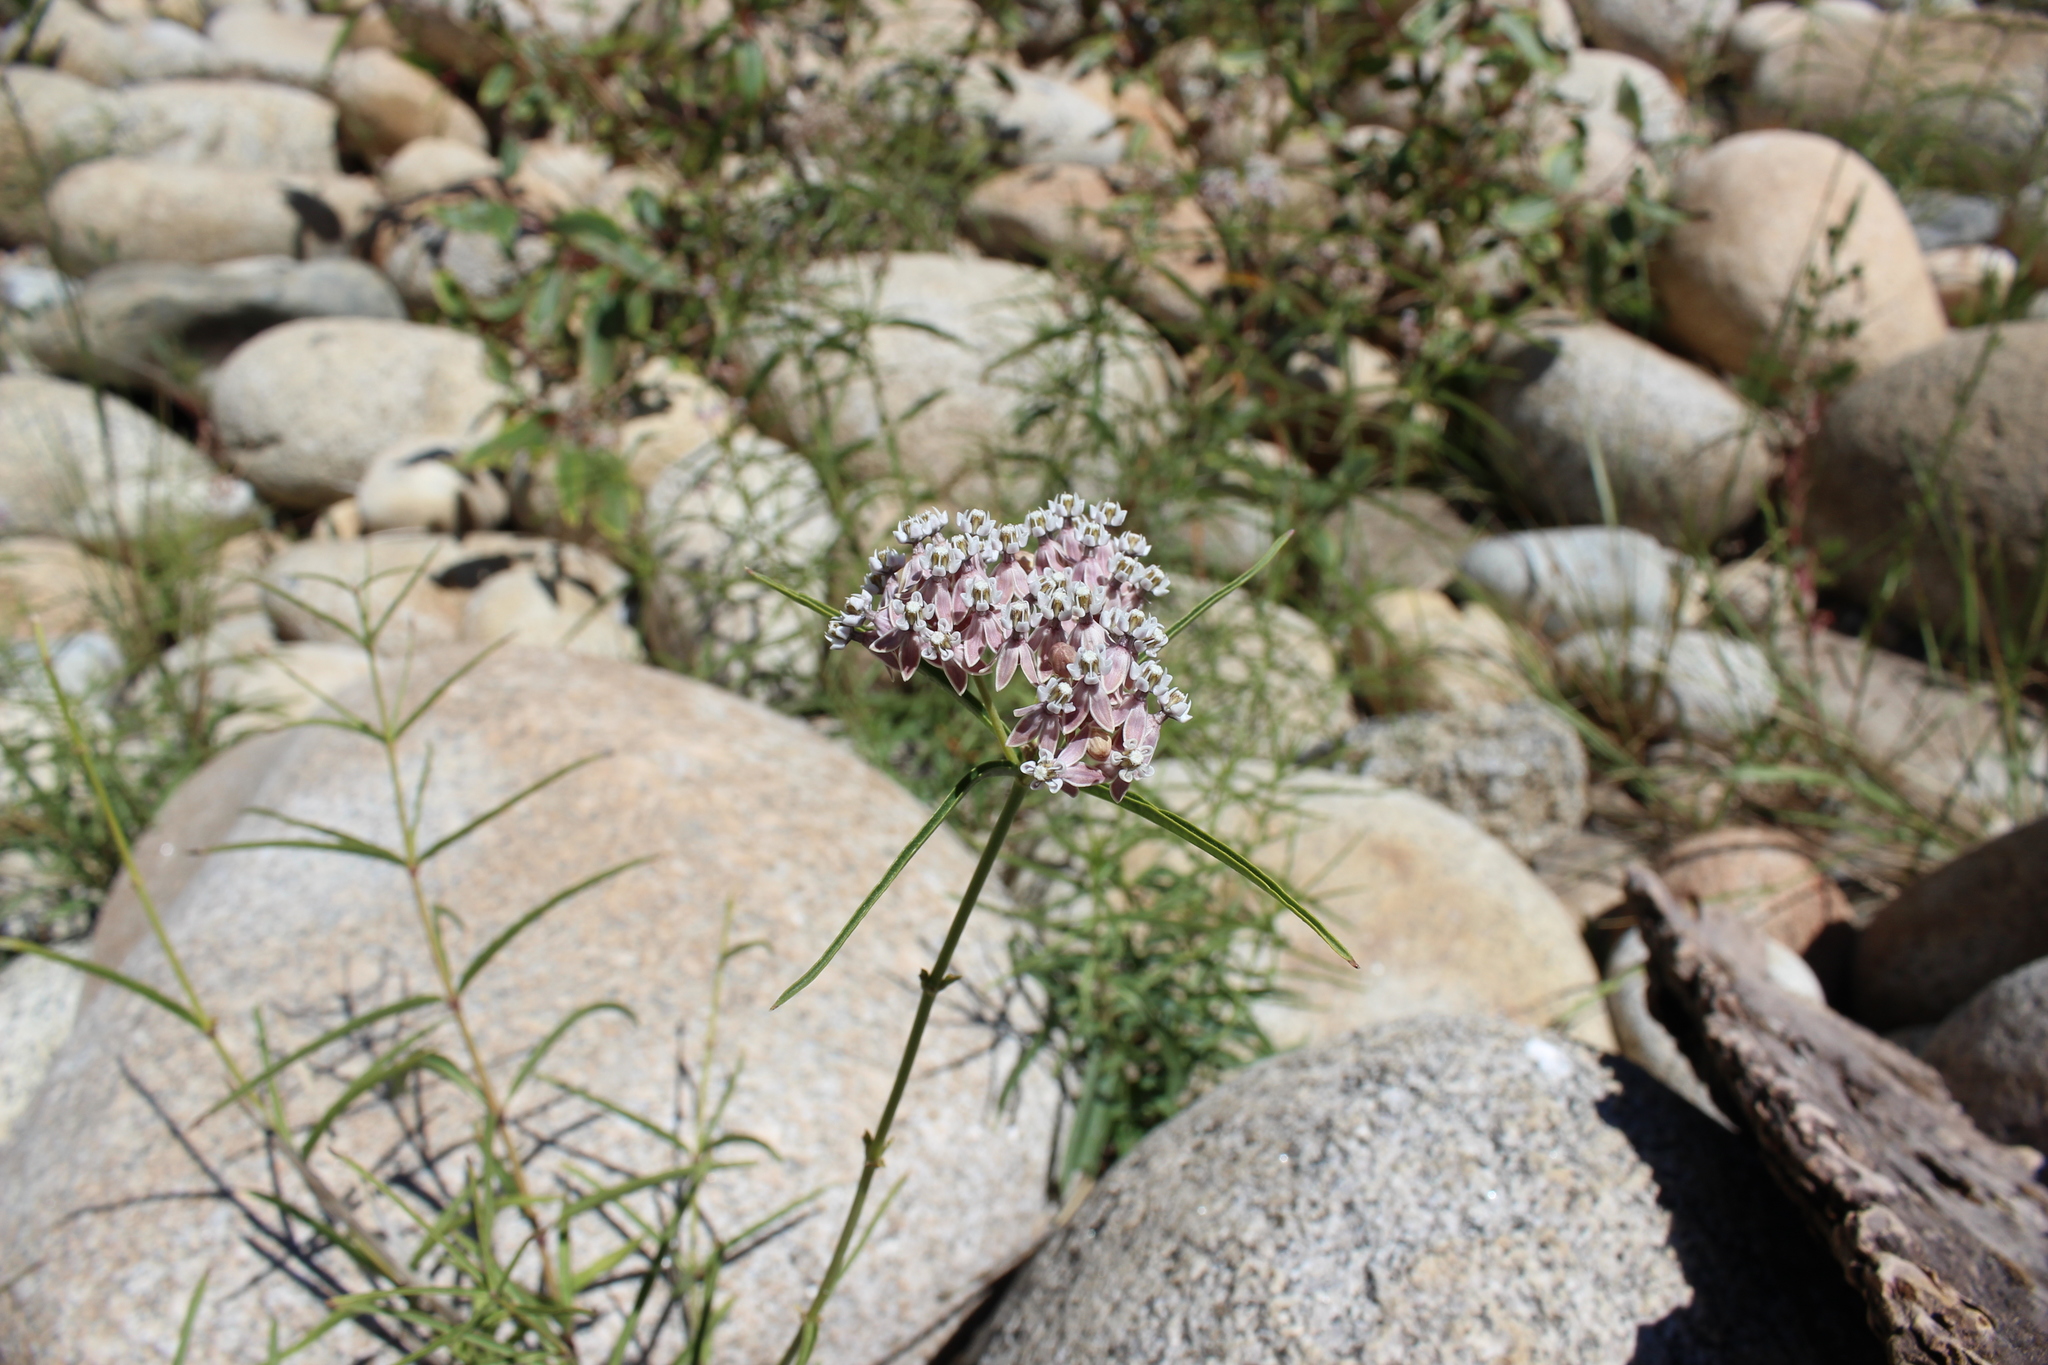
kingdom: Plantae
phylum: Tracheophyta
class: Magnoliopsida
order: Gentianales
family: Apocynaceae
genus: Asclepias
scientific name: Asclepias fascicularis
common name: Mexican milkweed
